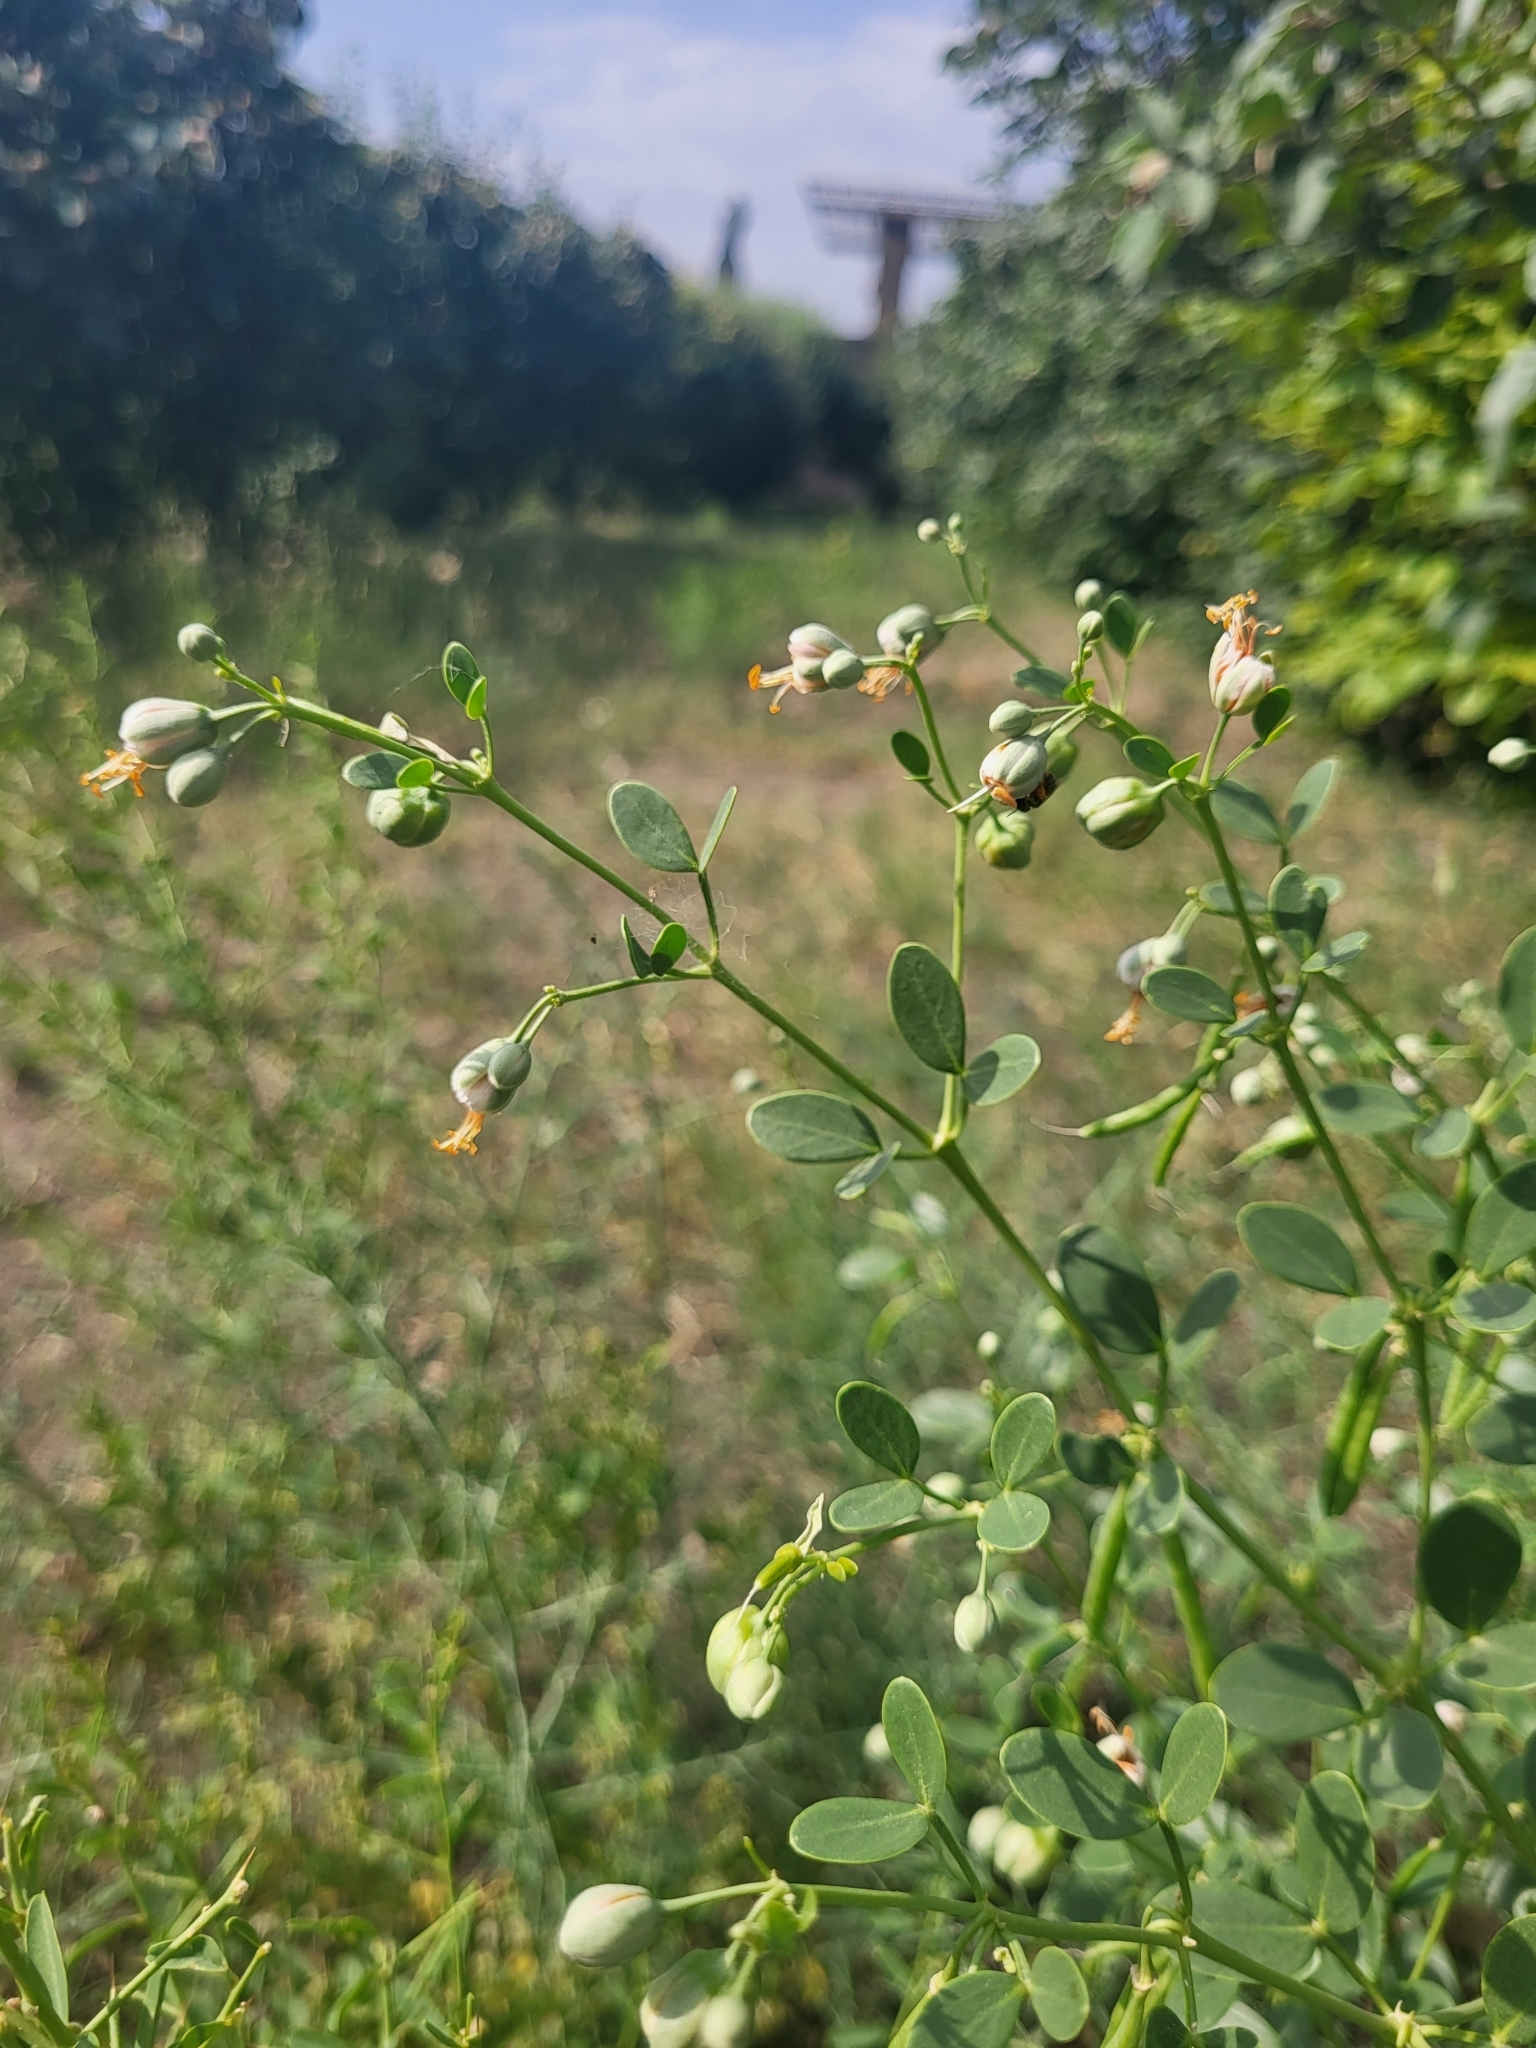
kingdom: Plantae
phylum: Tracheophyta
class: Magnoliopsida
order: Zygophyllales
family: Zygophyllaceae
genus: Zygophyllum
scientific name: Zygophyllum fabago
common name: Syrian beancaper
